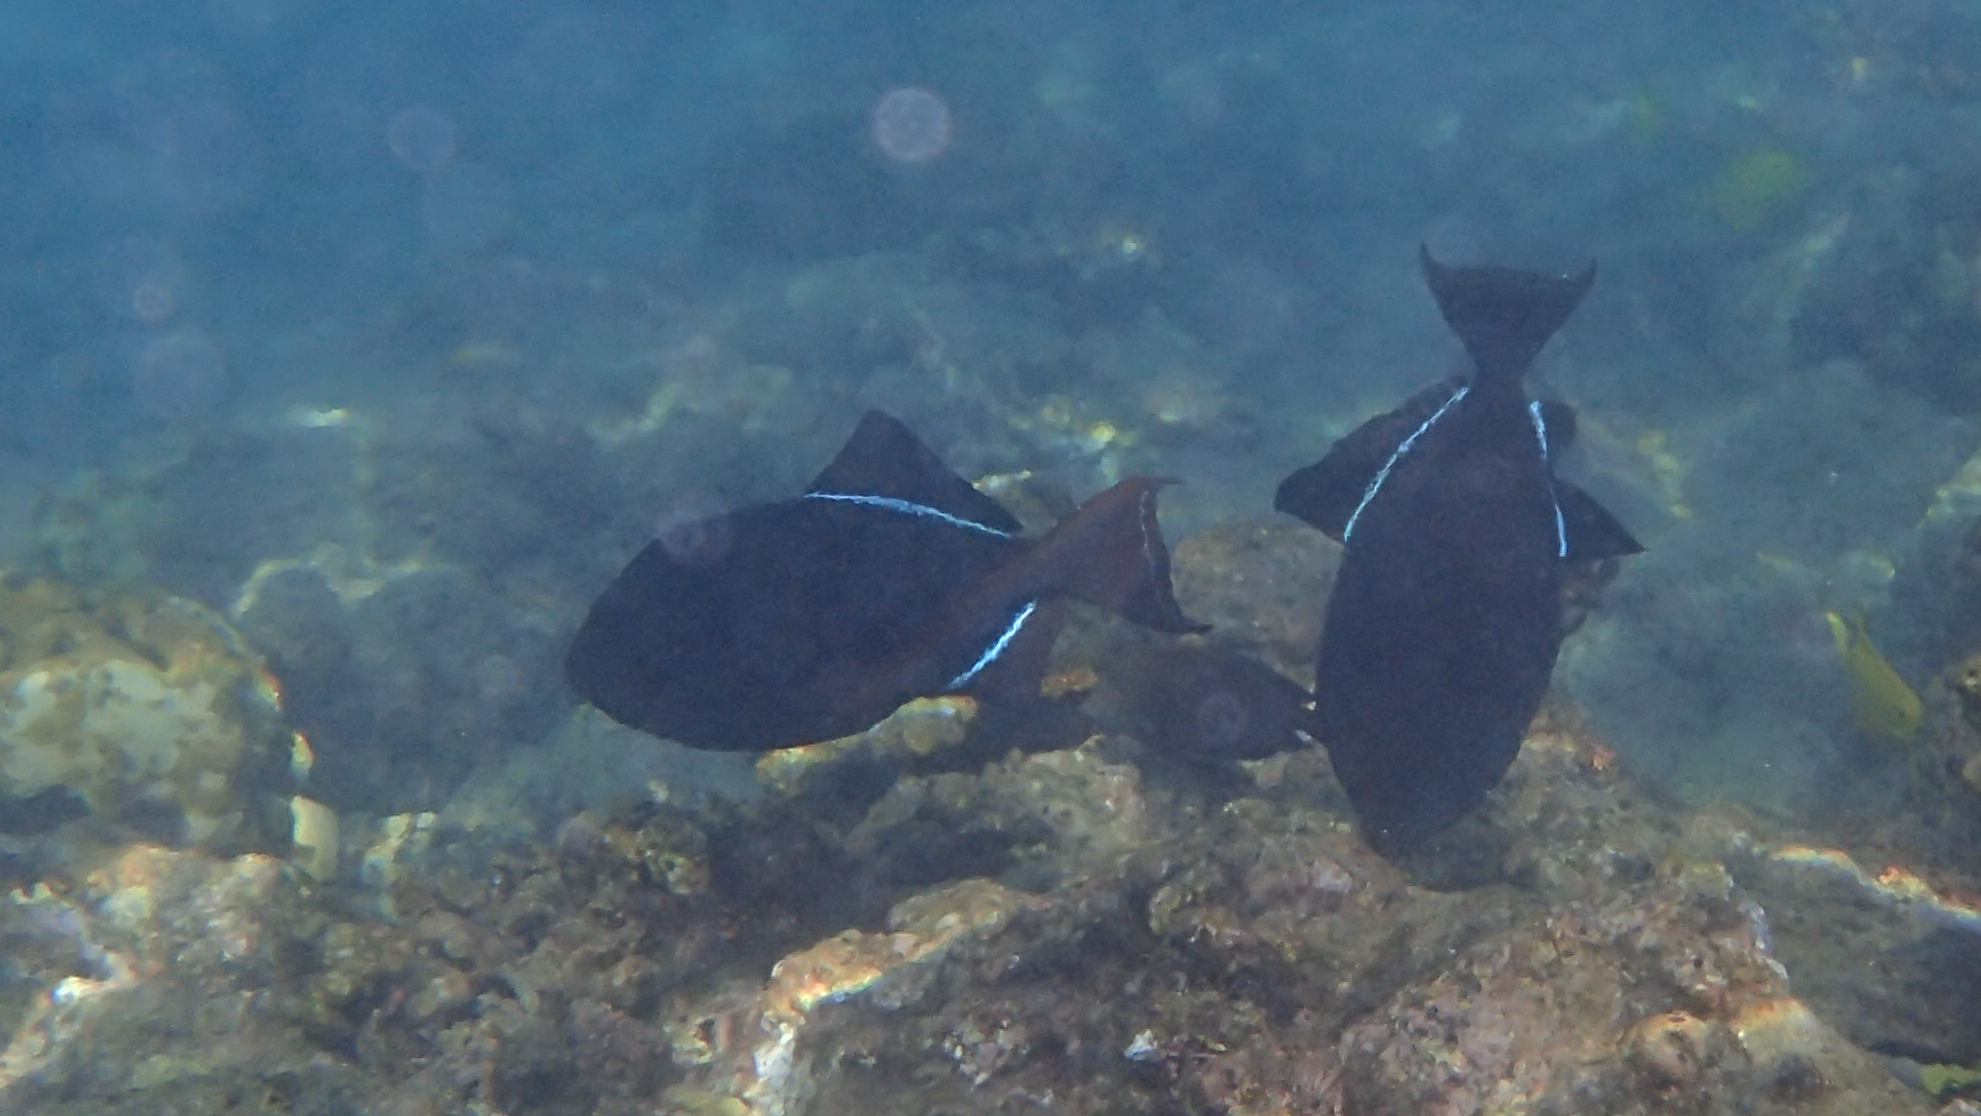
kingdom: Animalia
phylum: Chordata
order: Tetraodontiformes
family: Balistidae
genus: Melichthys
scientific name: Melichthys niger
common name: Black durgon
